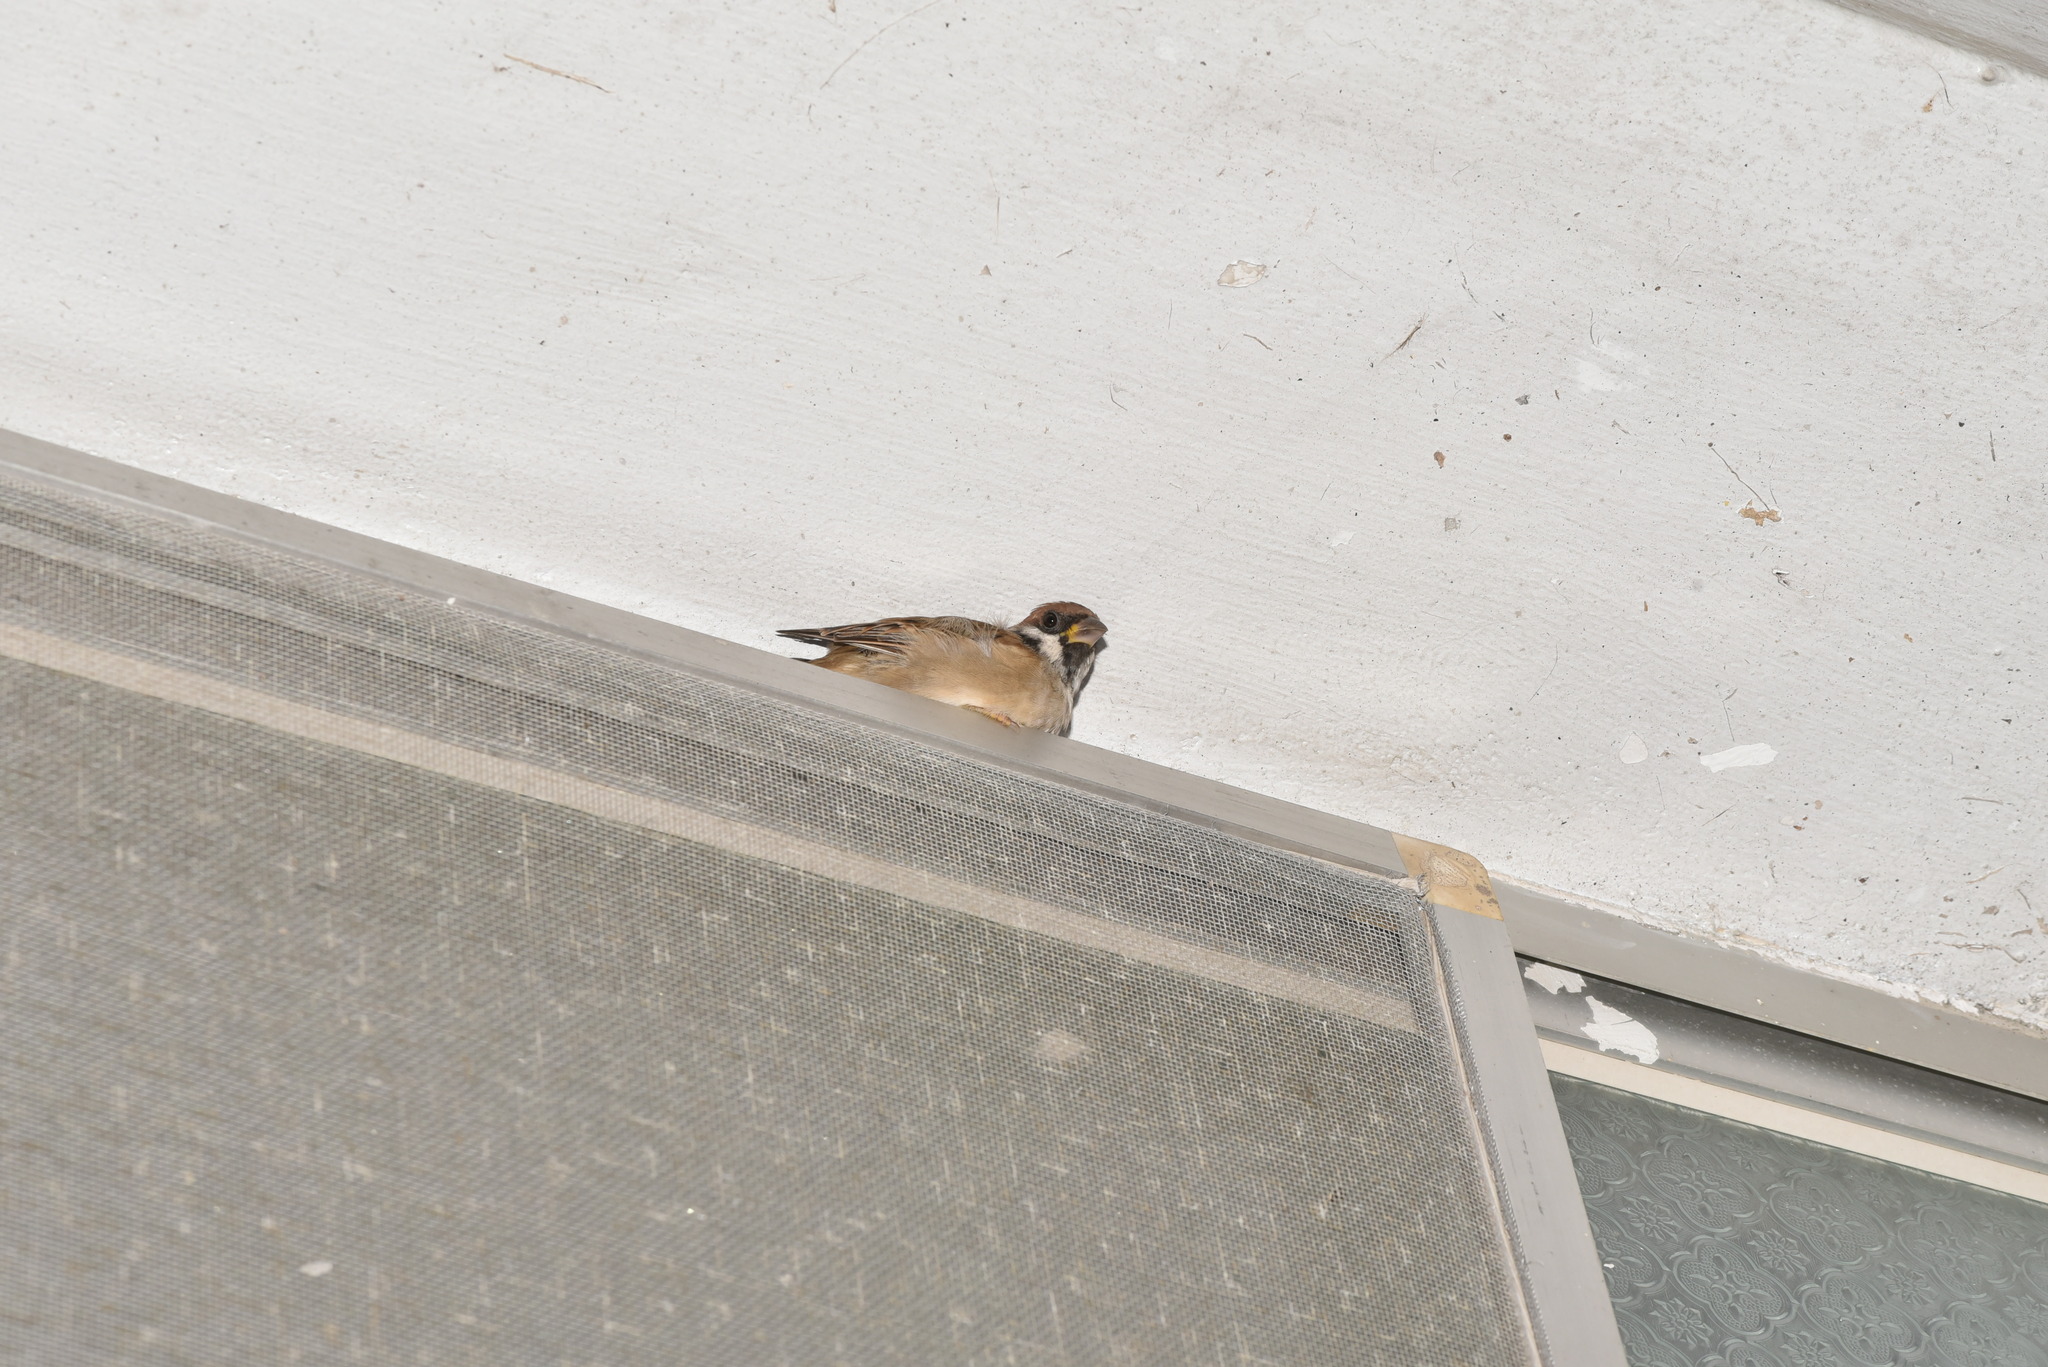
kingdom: Animalia
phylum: Chordata
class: Aves
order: Passeriformes
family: Passeridae
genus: Passer
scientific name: Passer montanus
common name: Eurasian tree sparrow
